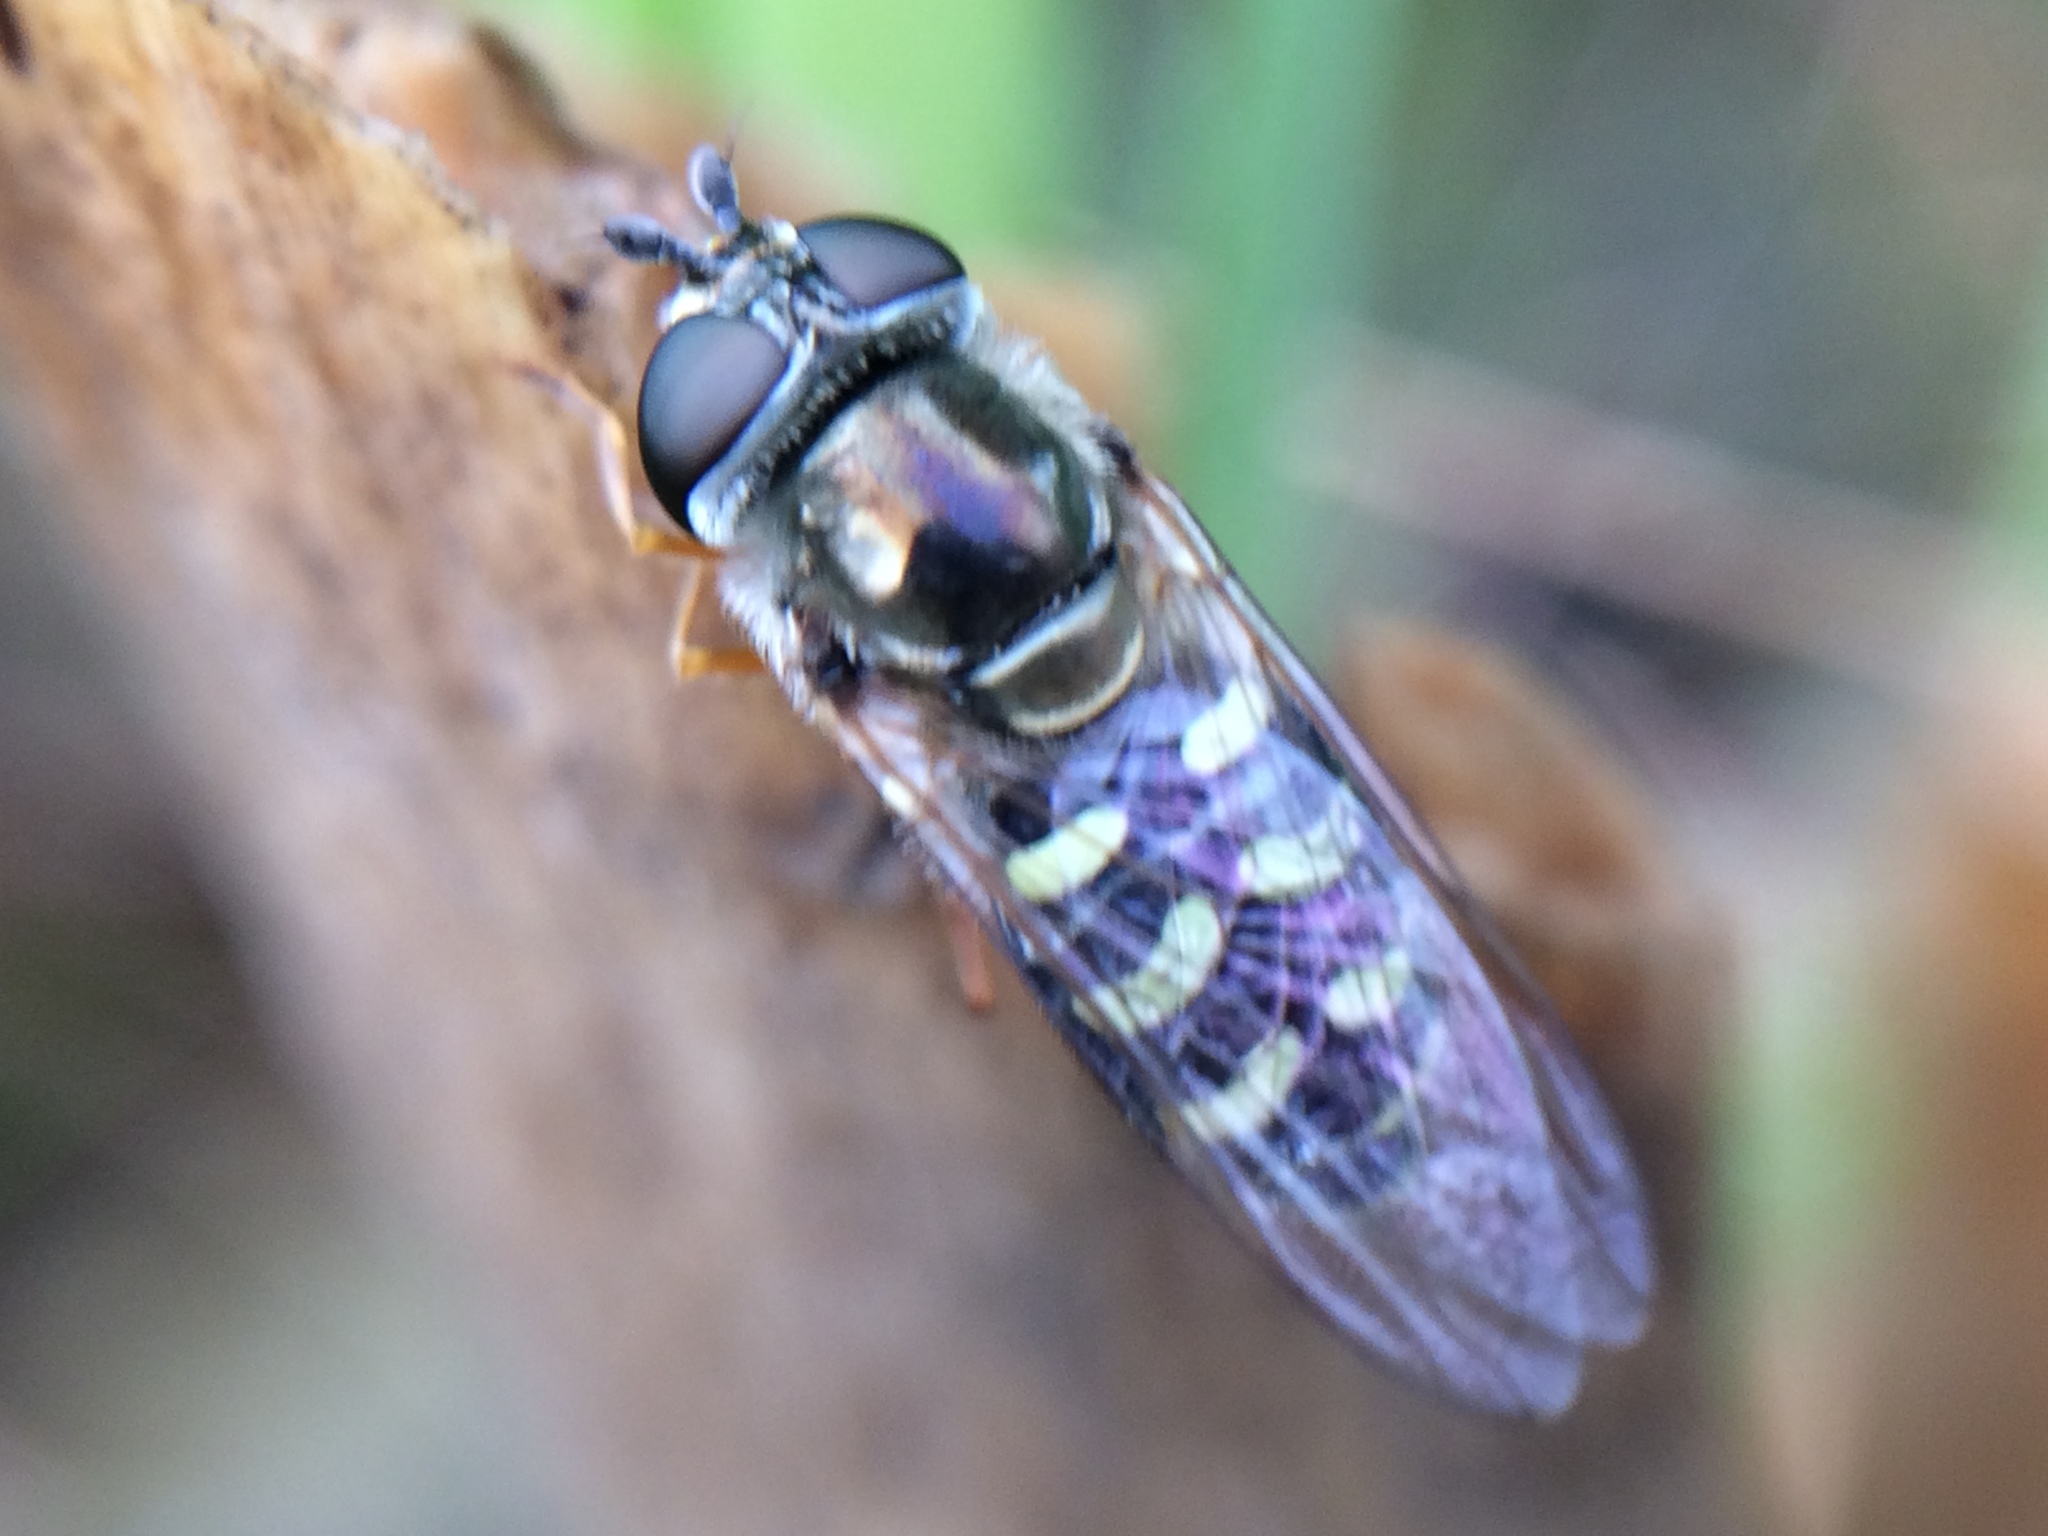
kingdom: Animalia
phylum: Arthropoda
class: Insecta
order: Diptera
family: Syrphidae
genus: Eupeodes
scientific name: Eupeodes volucris
